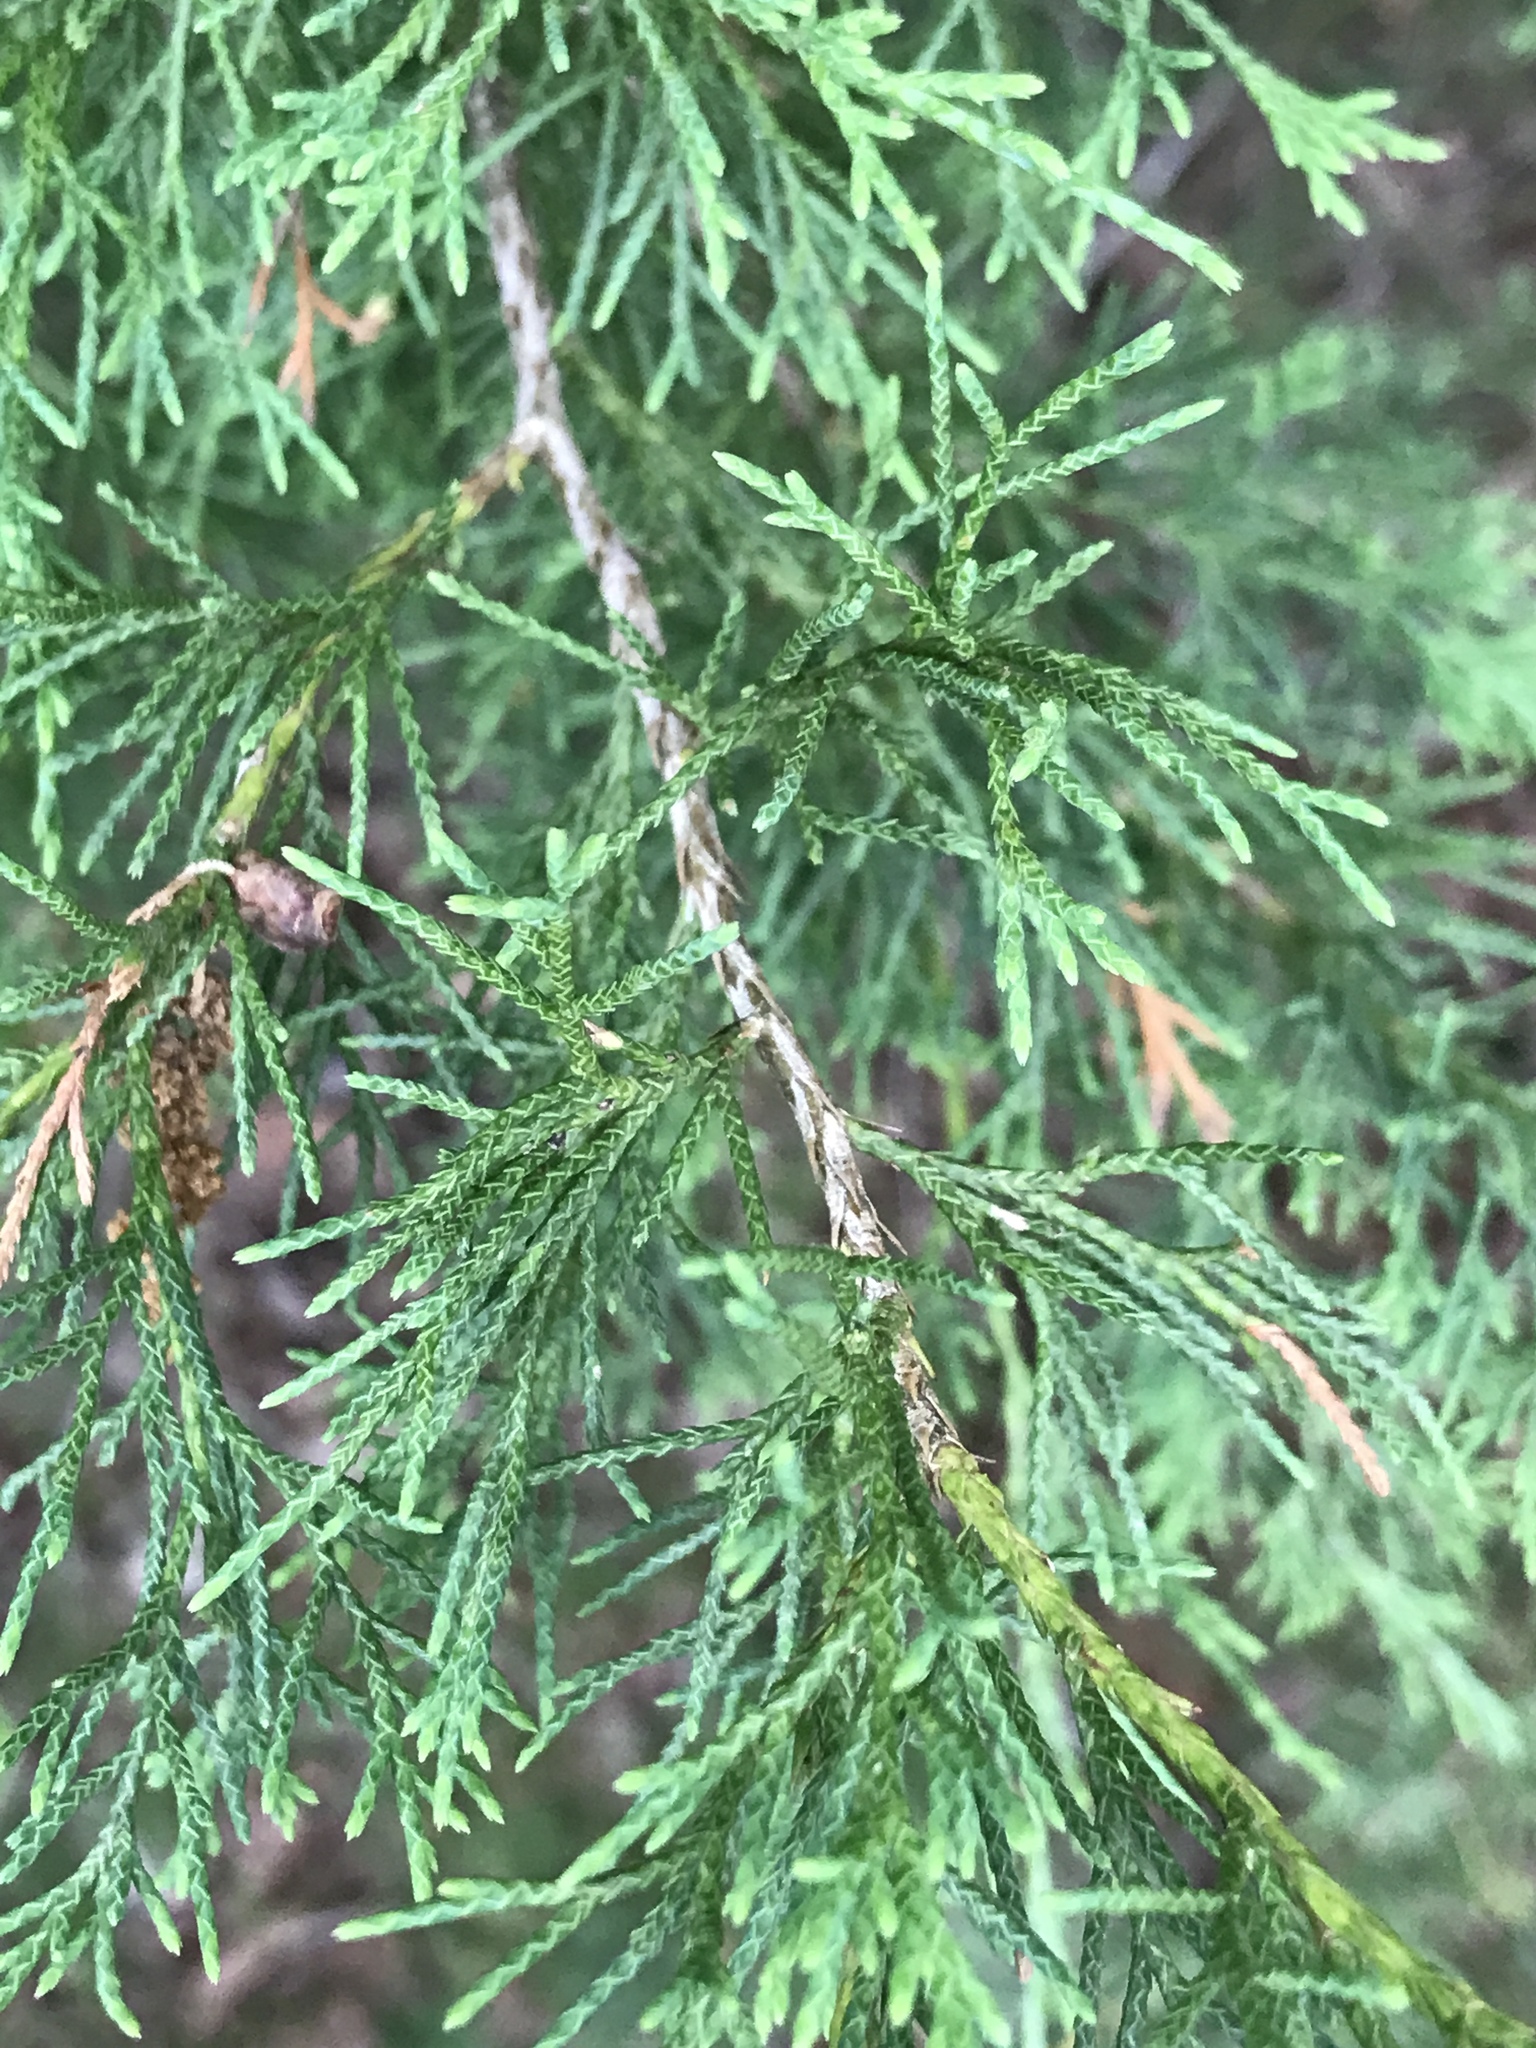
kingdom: Plantae
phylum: Tracheophyta
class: Pinopsida
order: Pinales
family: Cupressaceae
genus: Juniperus
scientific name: Juniperus virginiana
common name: Red juniper
